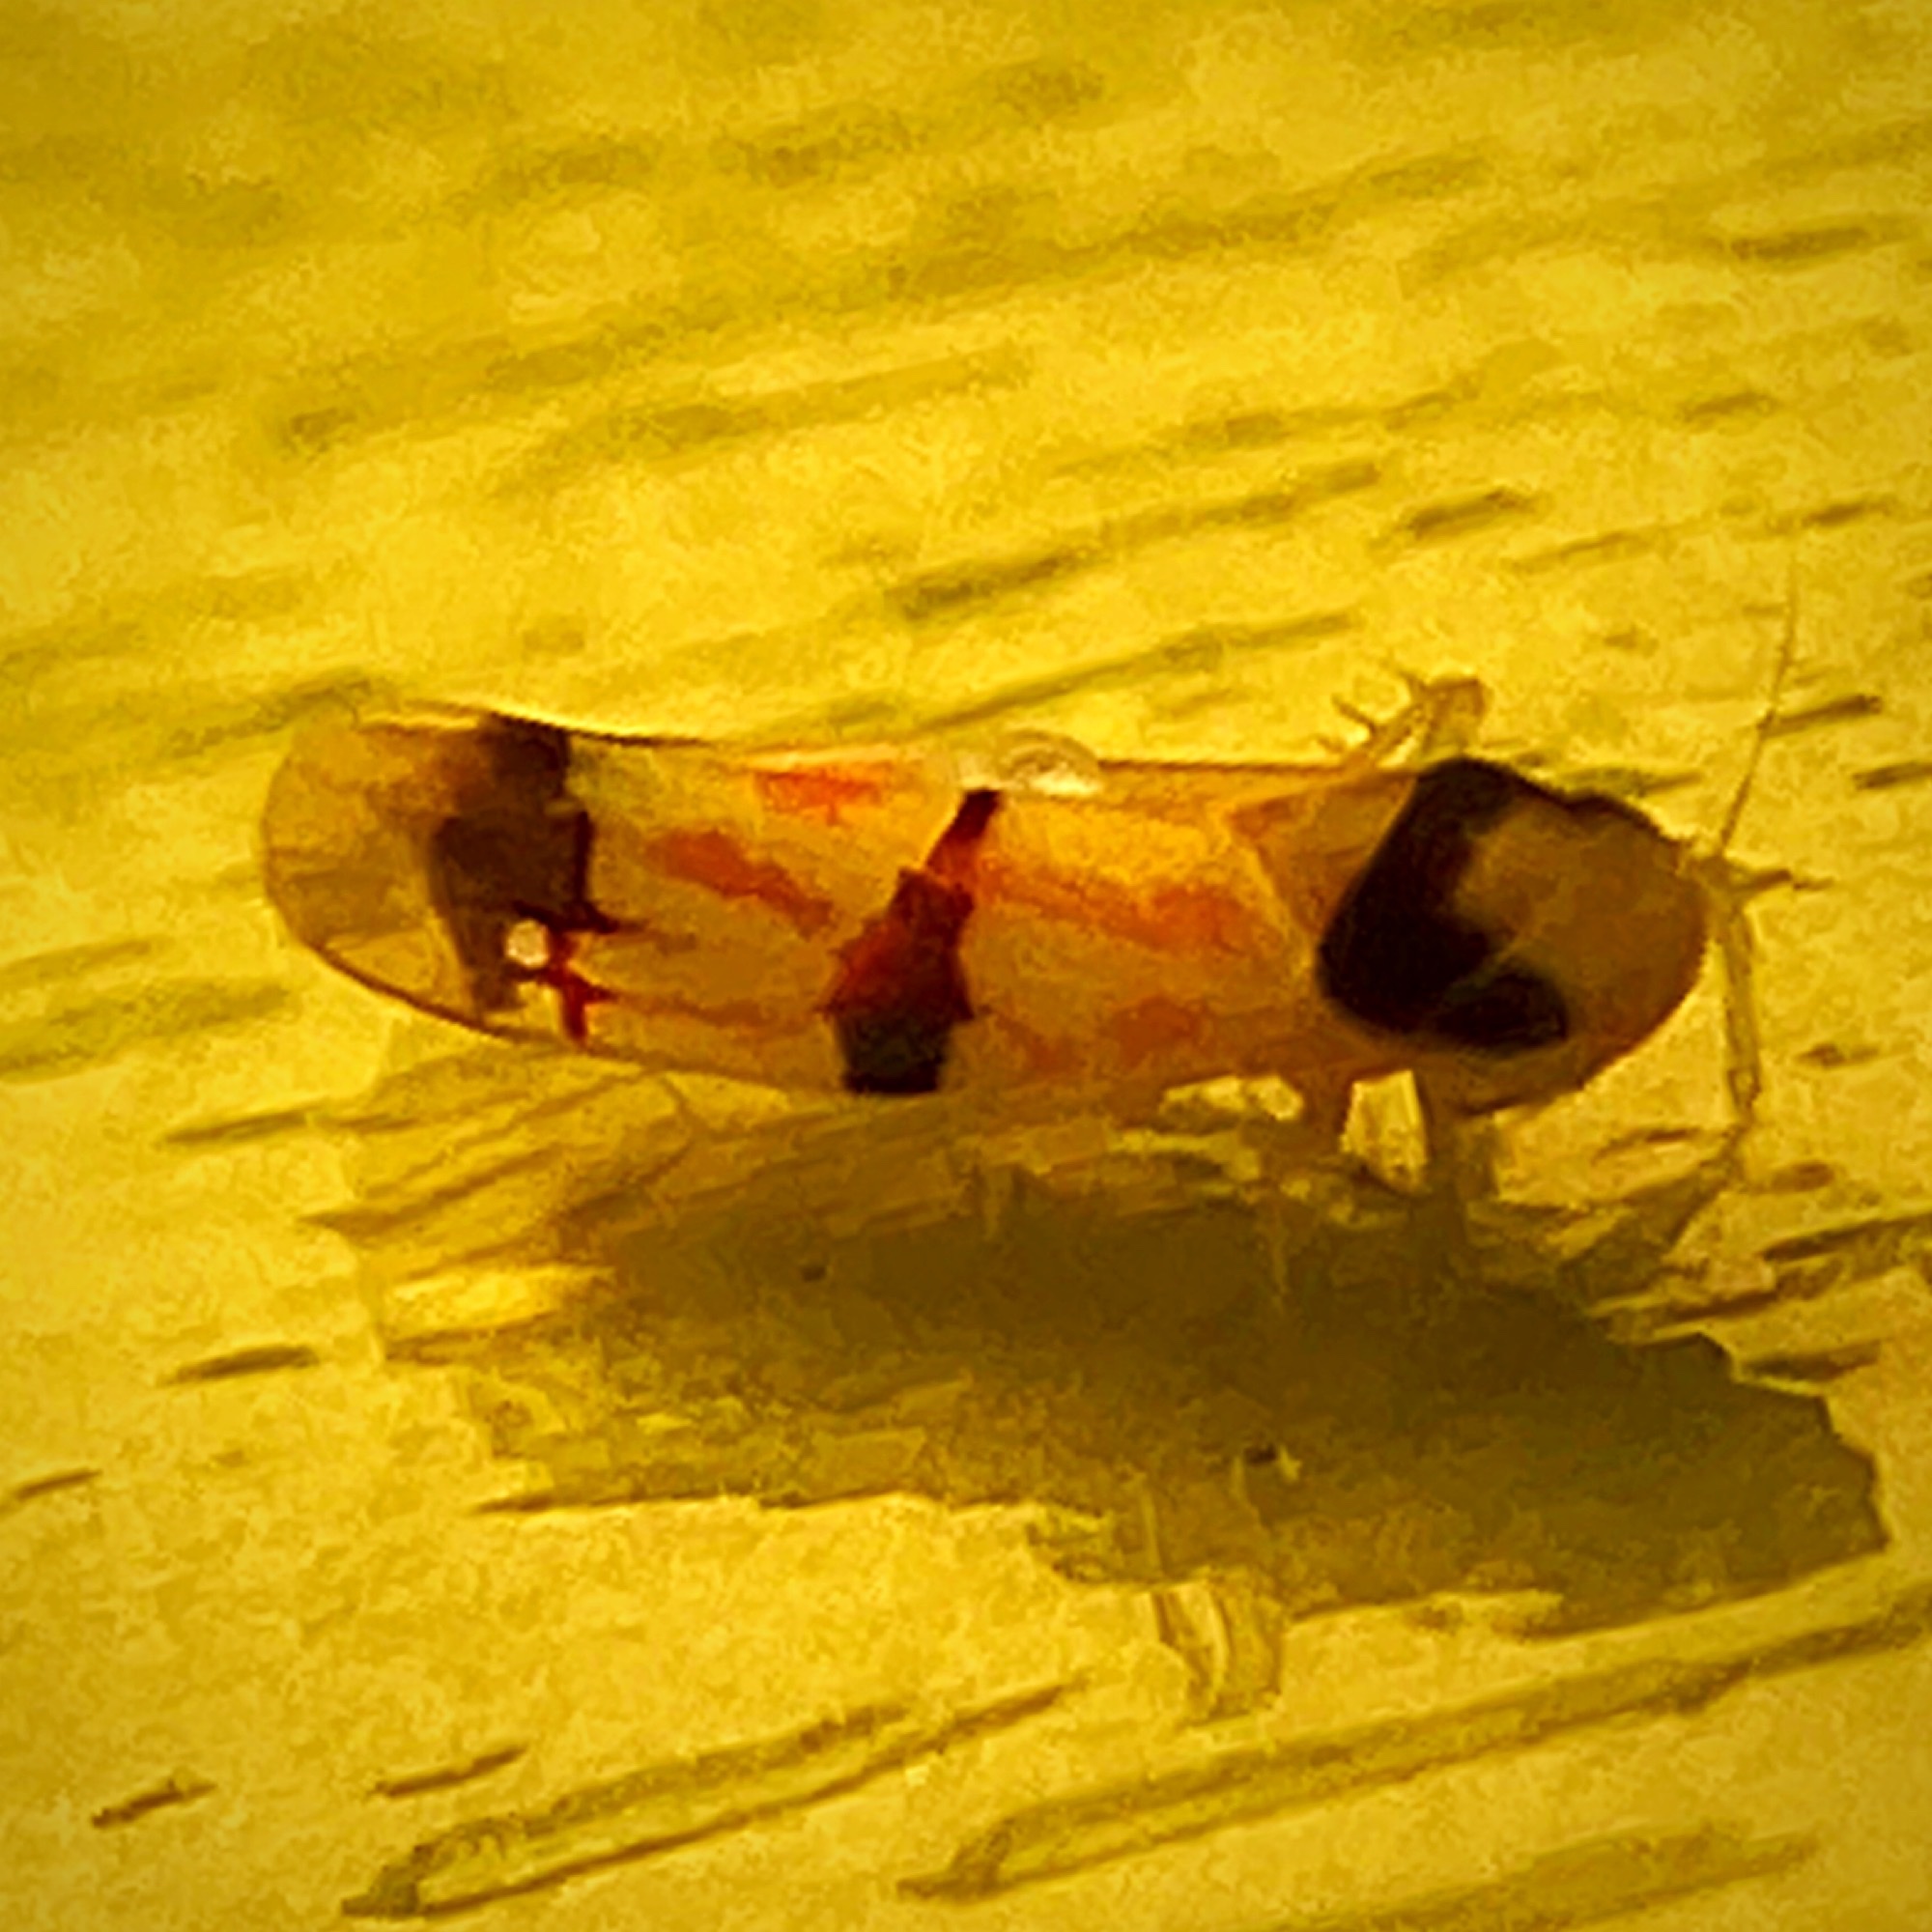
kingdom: Animalia
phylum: Arthropoda
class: Insecta
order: Hemiptera
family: Cicadellidae
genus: Erythroneura
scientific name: Erythroneura cymbium
